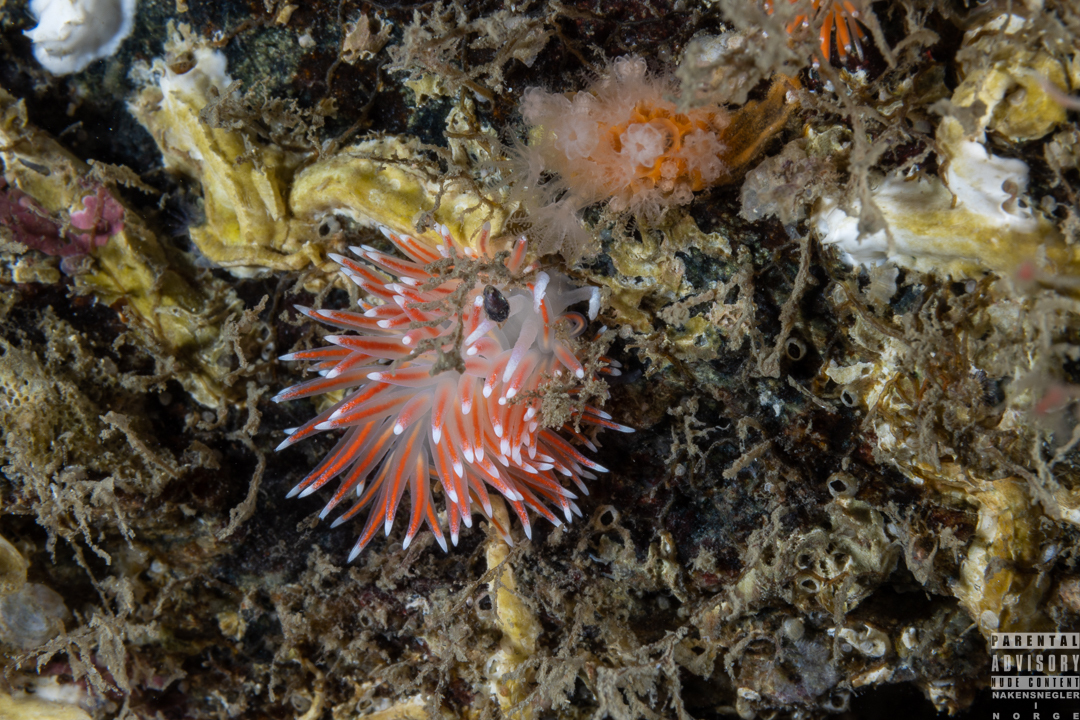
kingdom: Animalia
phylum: Mollusca
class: Gastropoda
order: Nudibranchia
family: Flabellinidae
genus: Carronella
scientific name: Carronella pellucida
